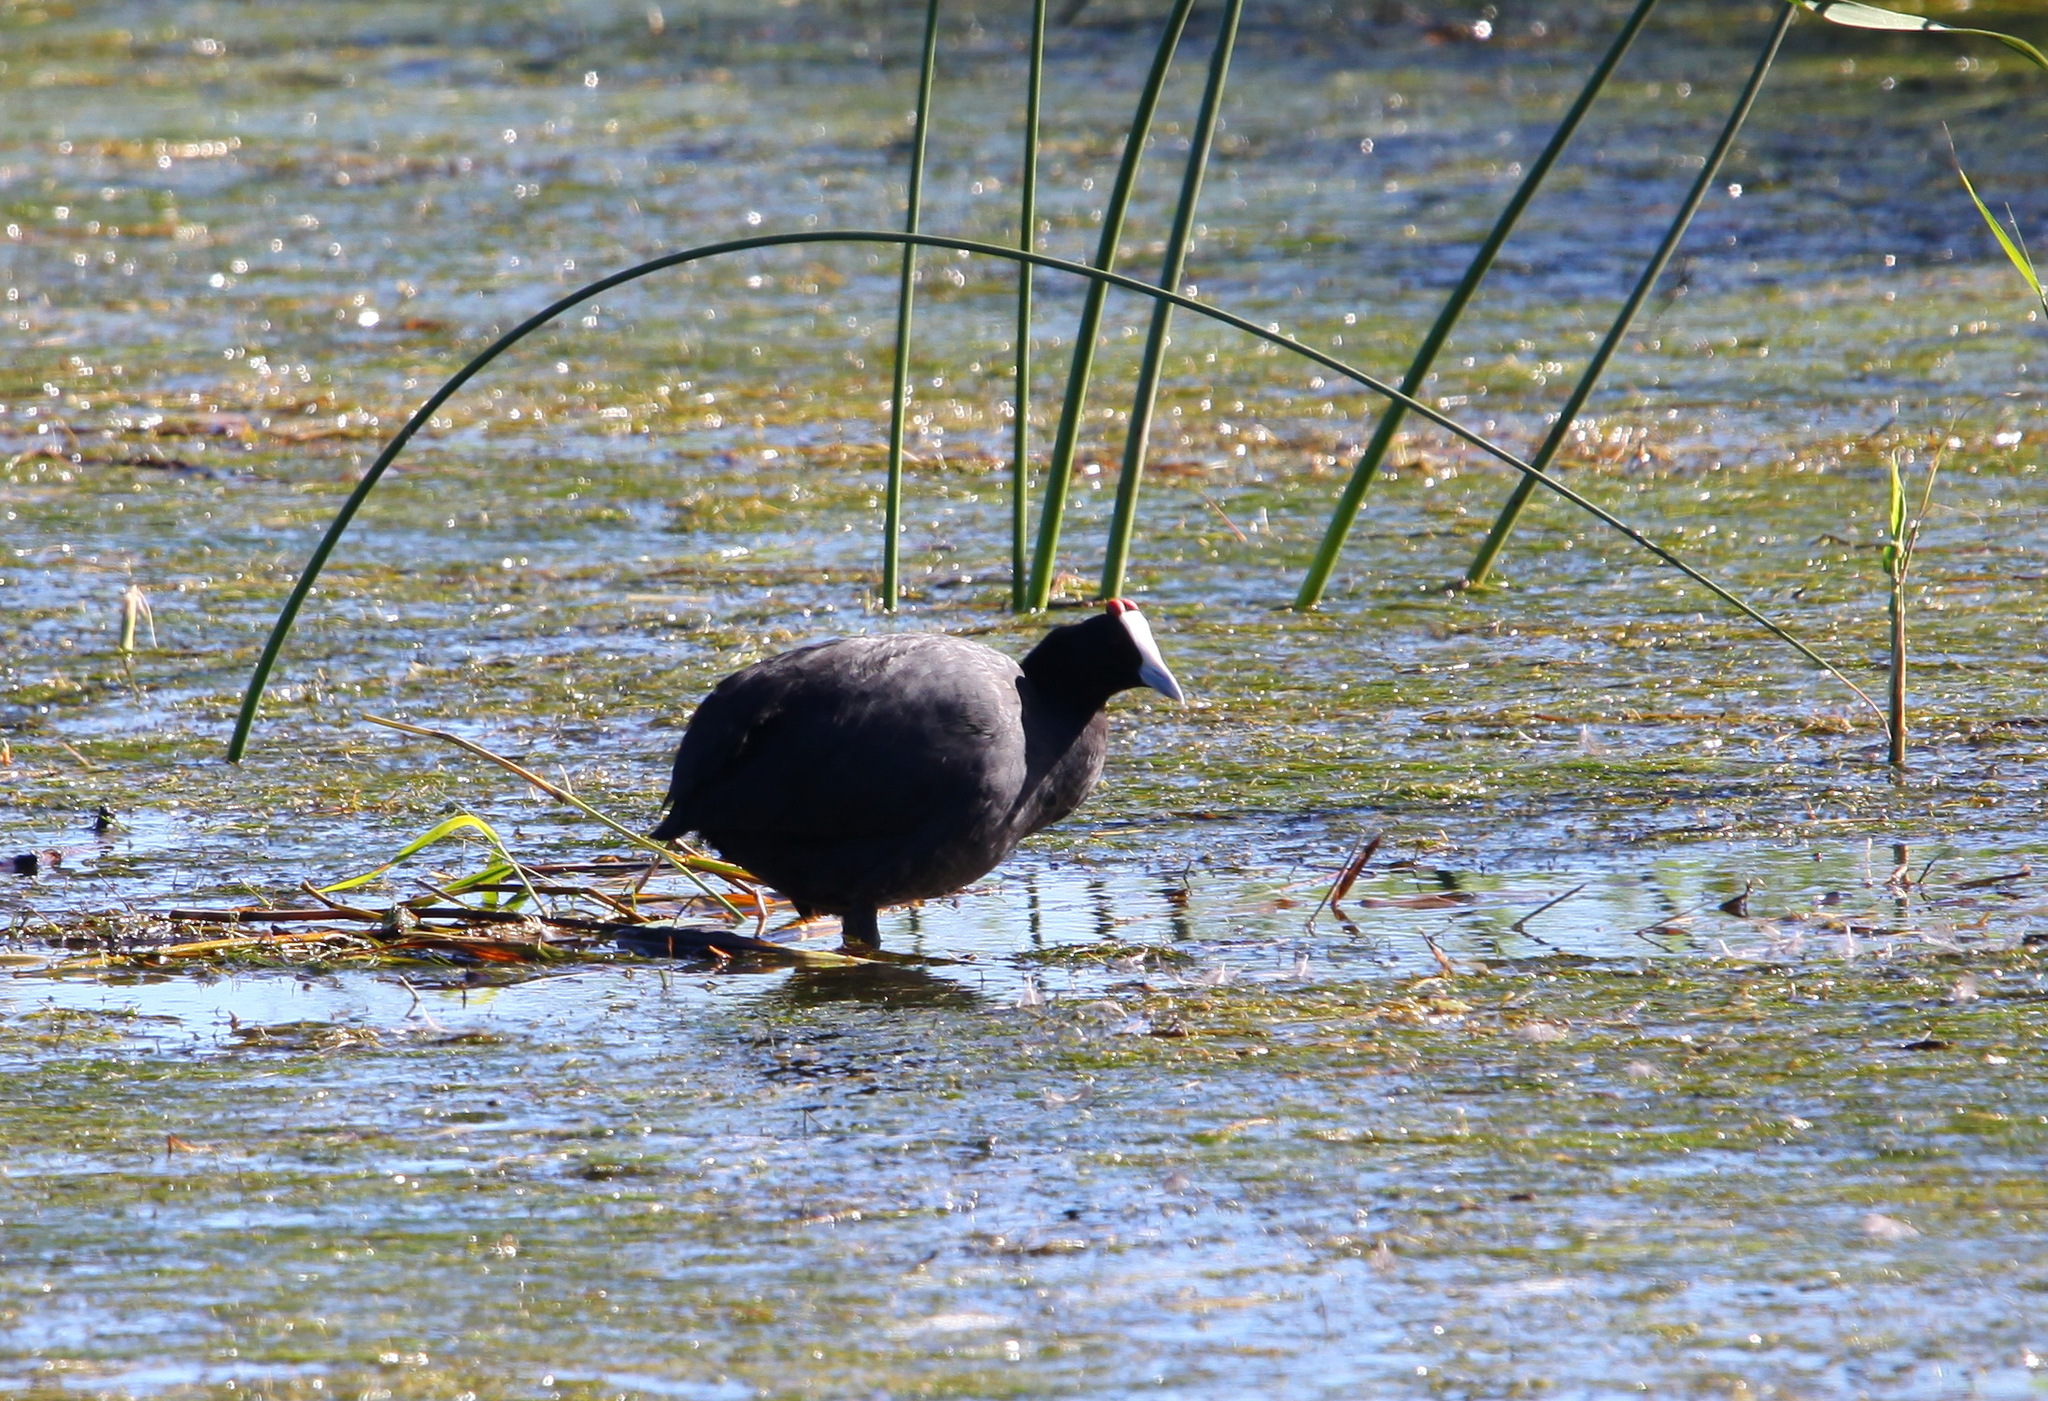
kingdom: Animalia
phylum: Chordata
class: Aves
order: Gruiformes
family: Rallidae
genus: Fulica
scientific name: Fulica cristata
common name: Red-knobbed coot
